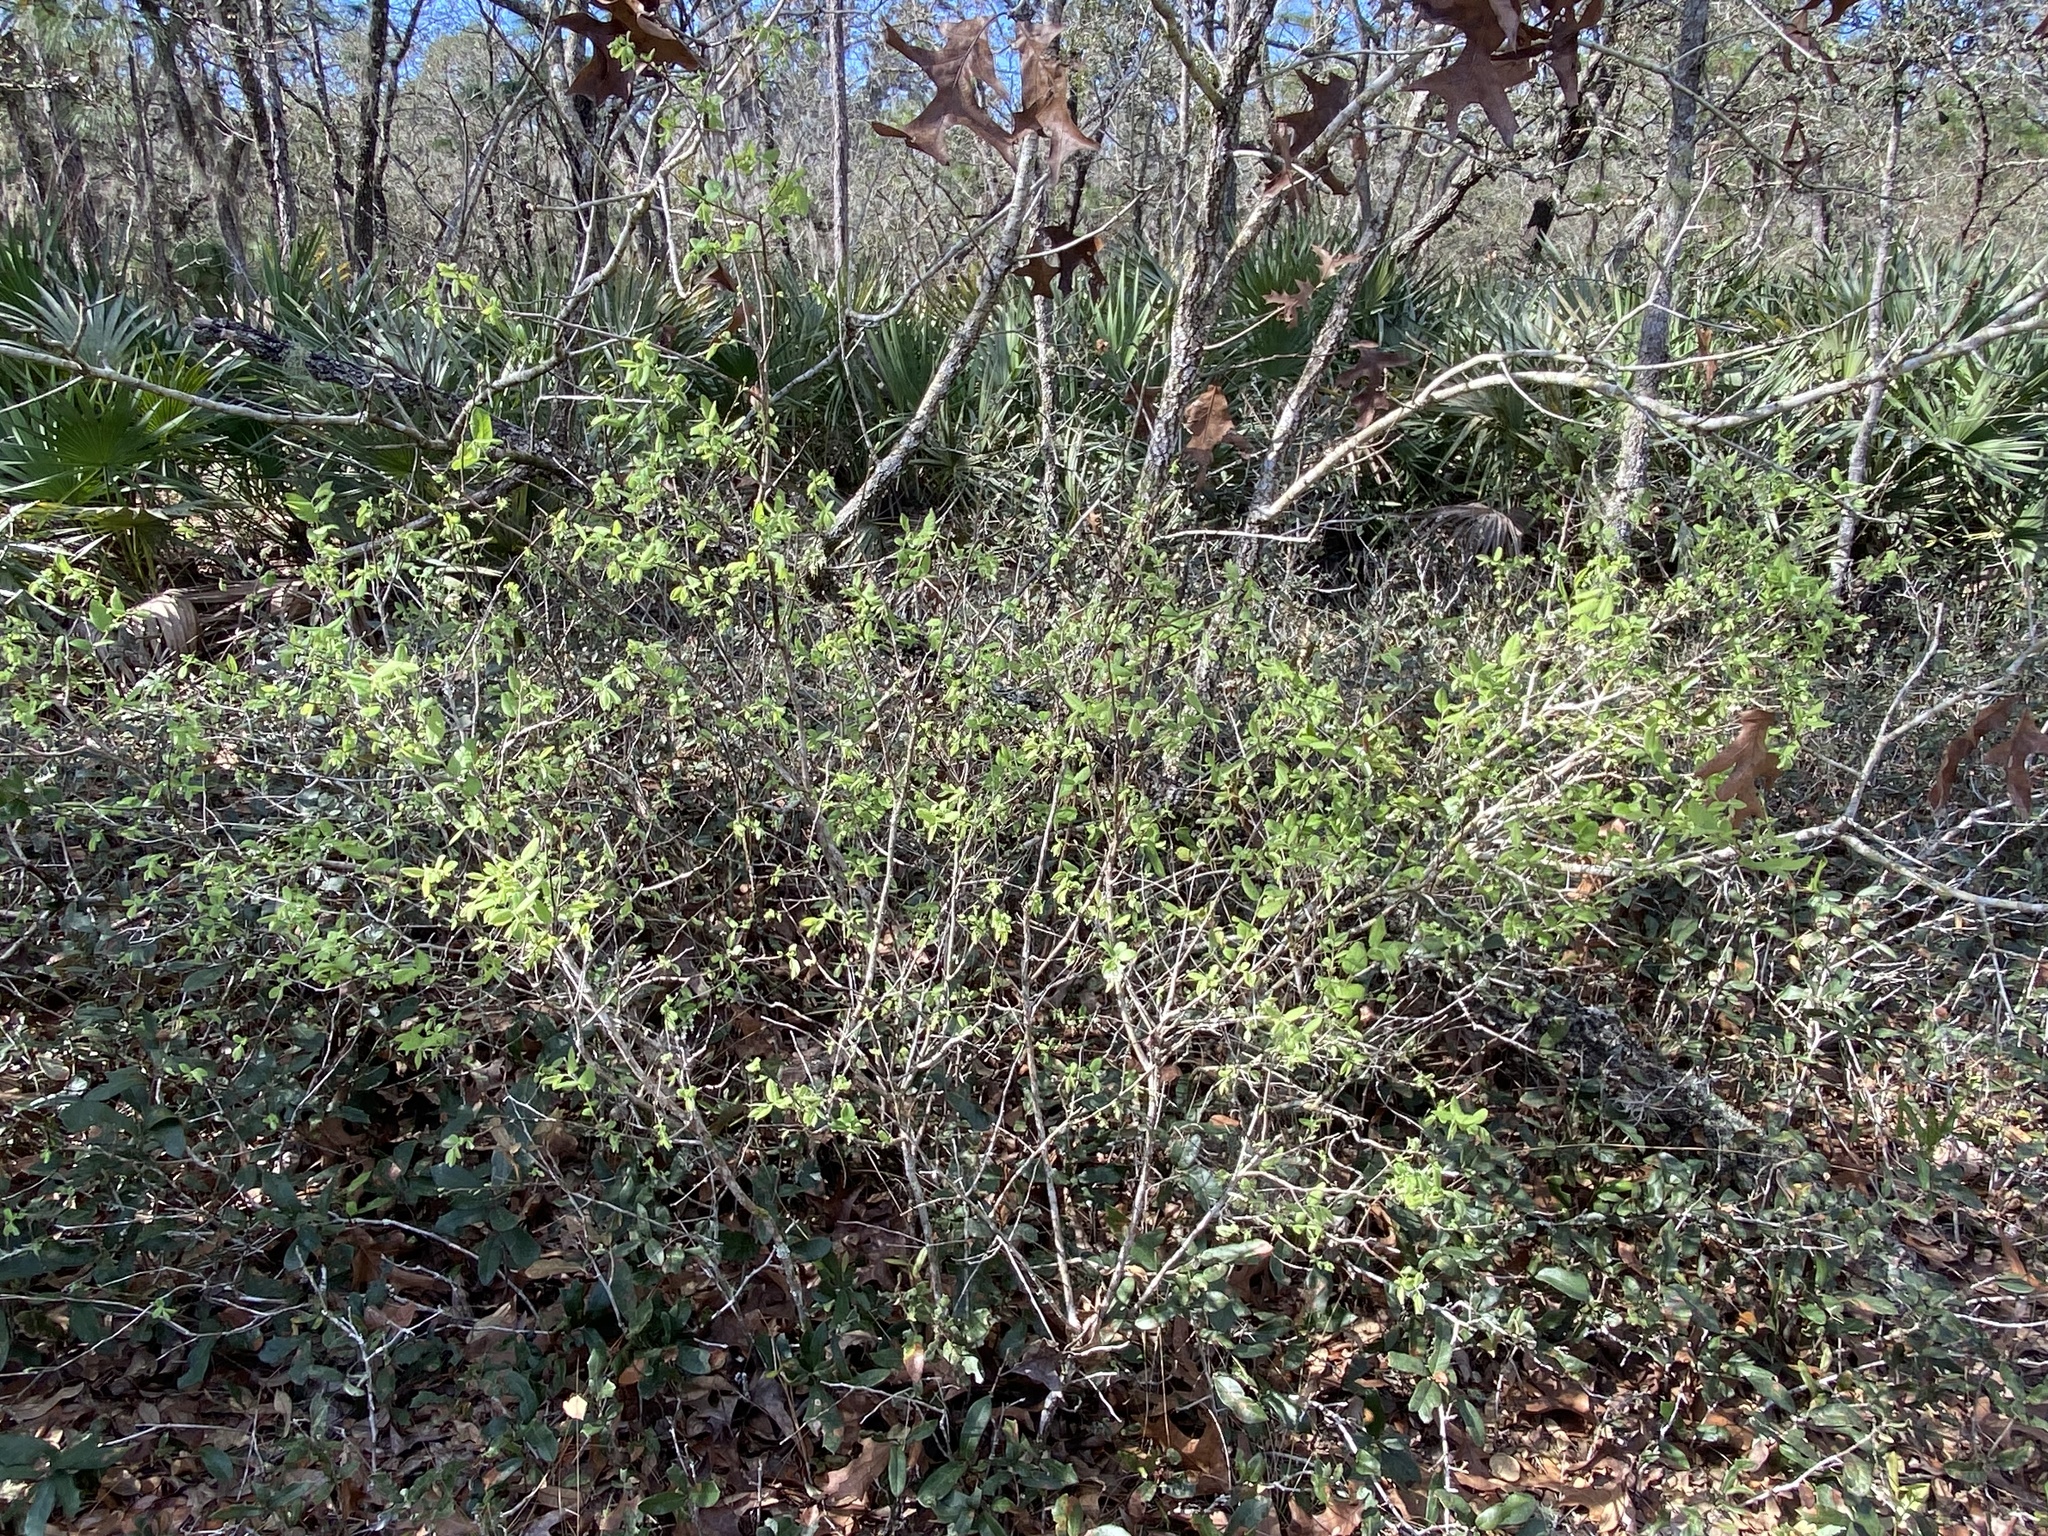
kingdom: Plantae
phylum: Tracheophyta
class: Magnoliopsida
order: Ericales
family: Ericaceae
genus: Vaccinium
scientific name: Vaccinium stamineum
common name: Deerberry
